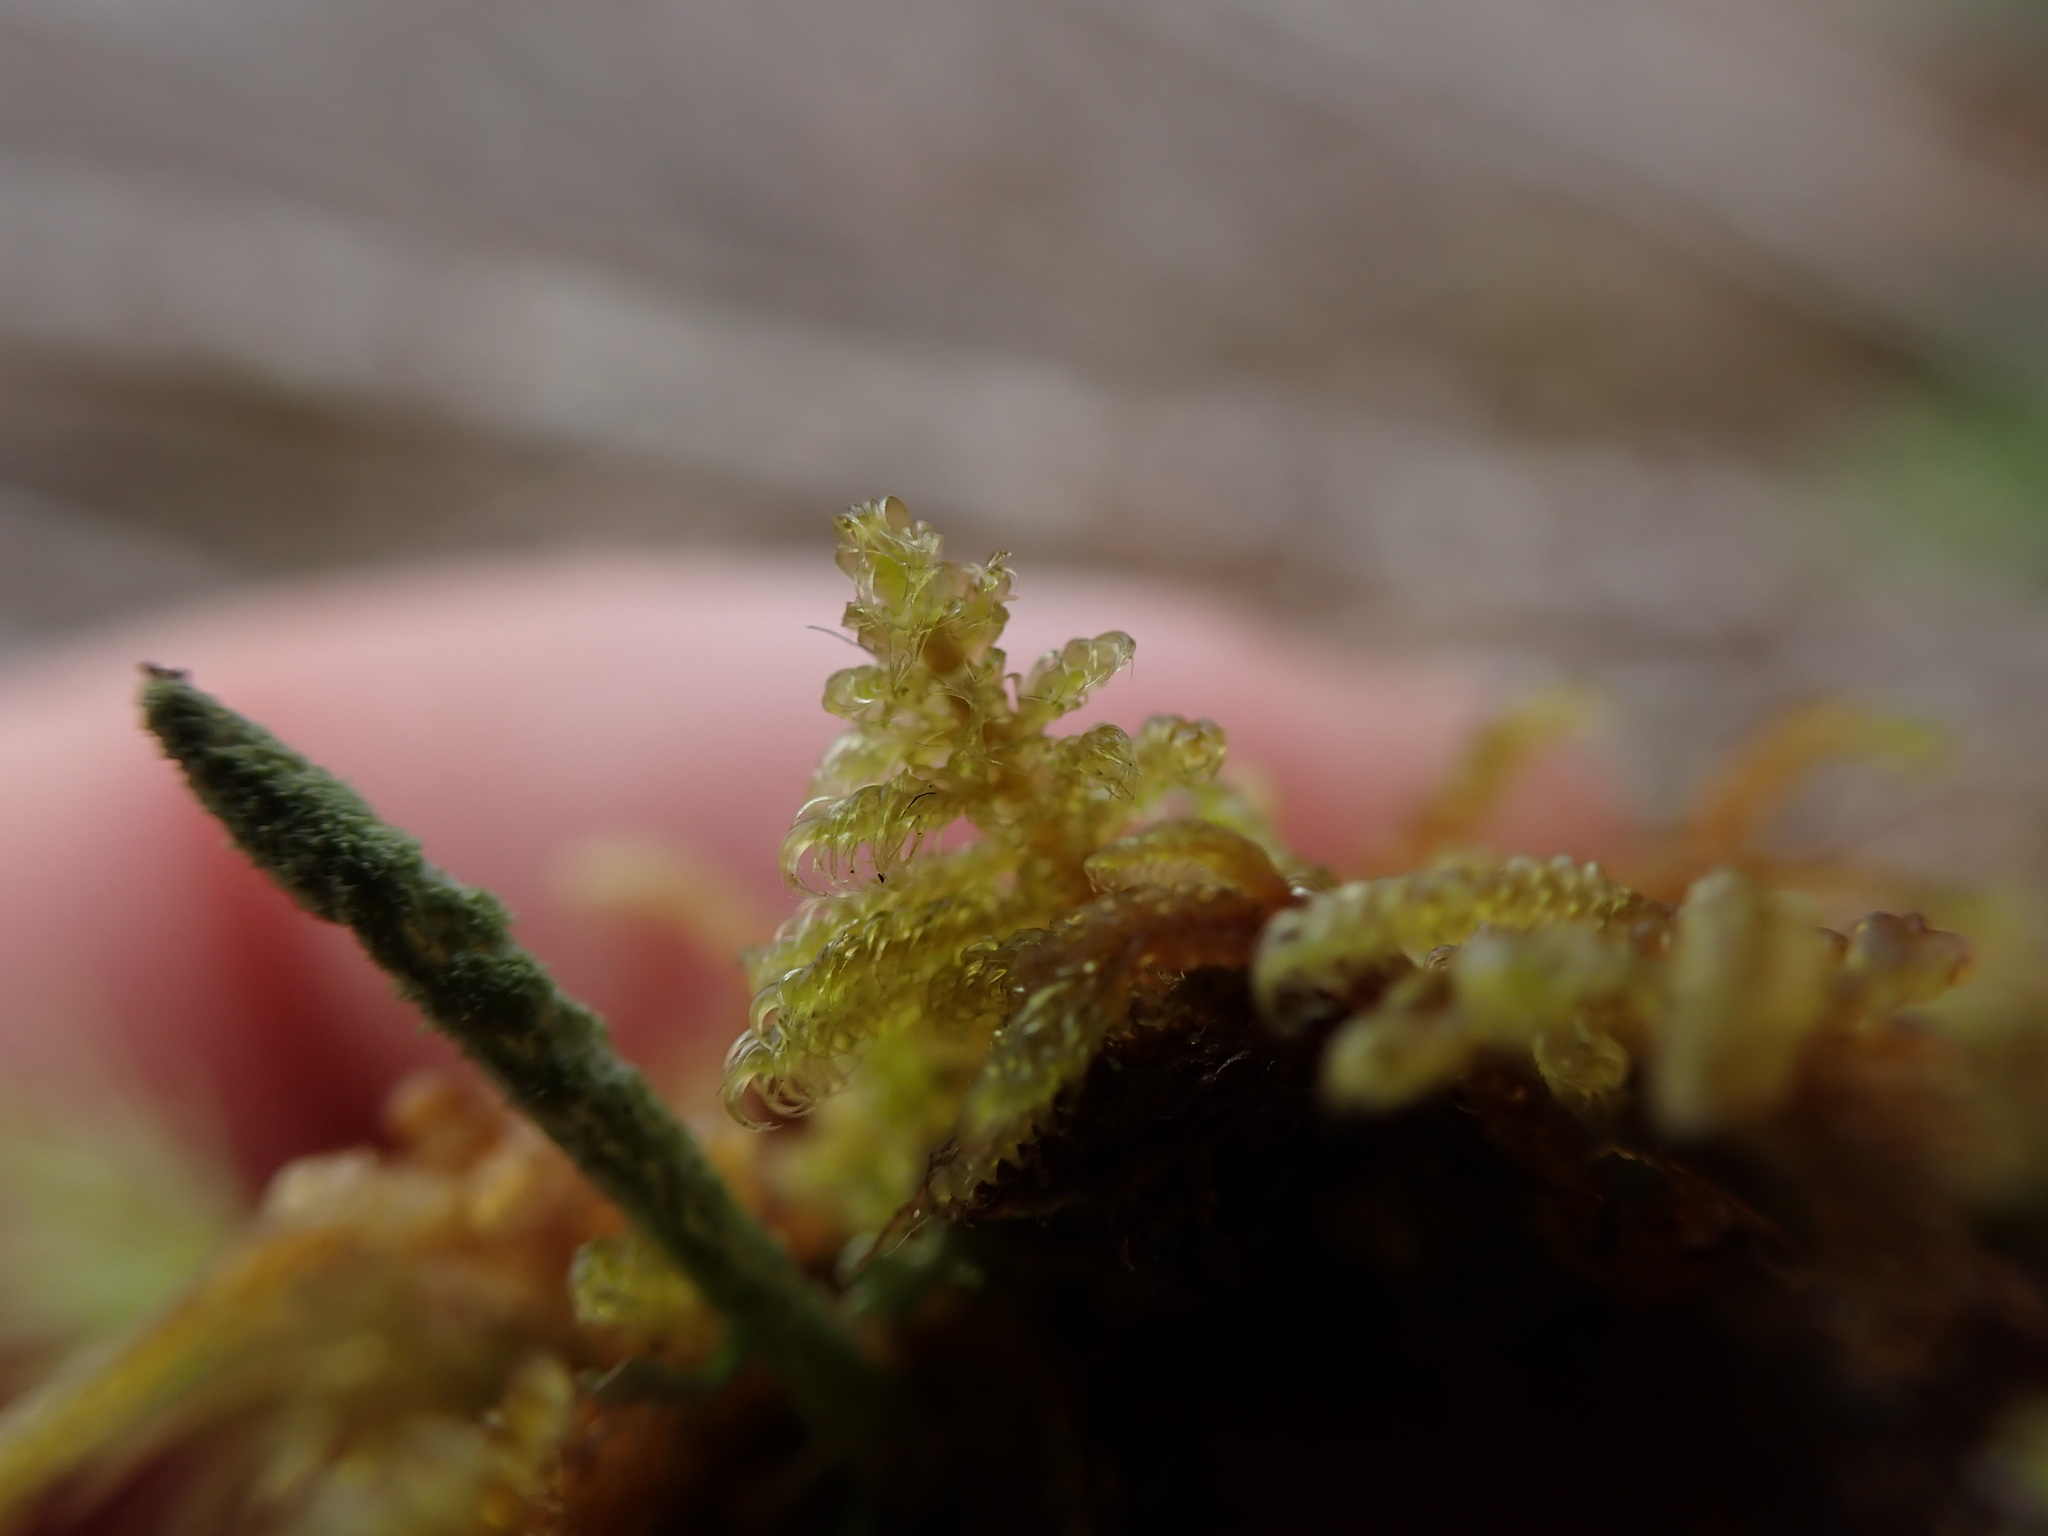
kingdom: Plantae
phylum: Bryophyta
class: Bryopsida
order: Hypnales
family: Scorpidiaceae
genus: Sanionia
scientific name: Sanionia uncinata
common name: Sickle moss
